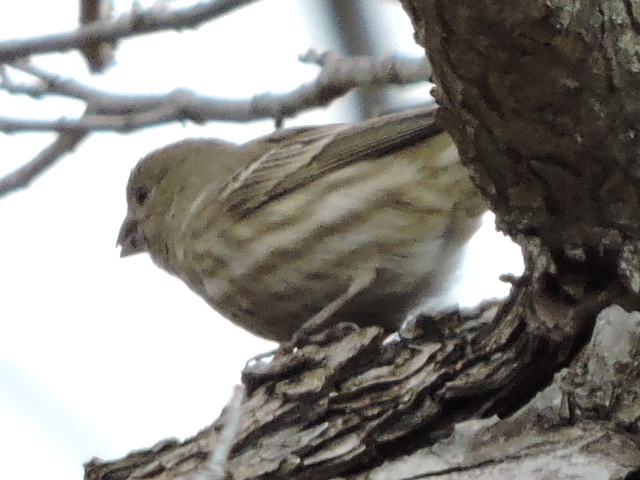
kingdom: Animalia
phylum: Chordata
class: Aves
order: Passeriformes
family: Fringillidae
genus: Haemorhous
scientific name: Haemorhous mexicanus
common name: House finch
